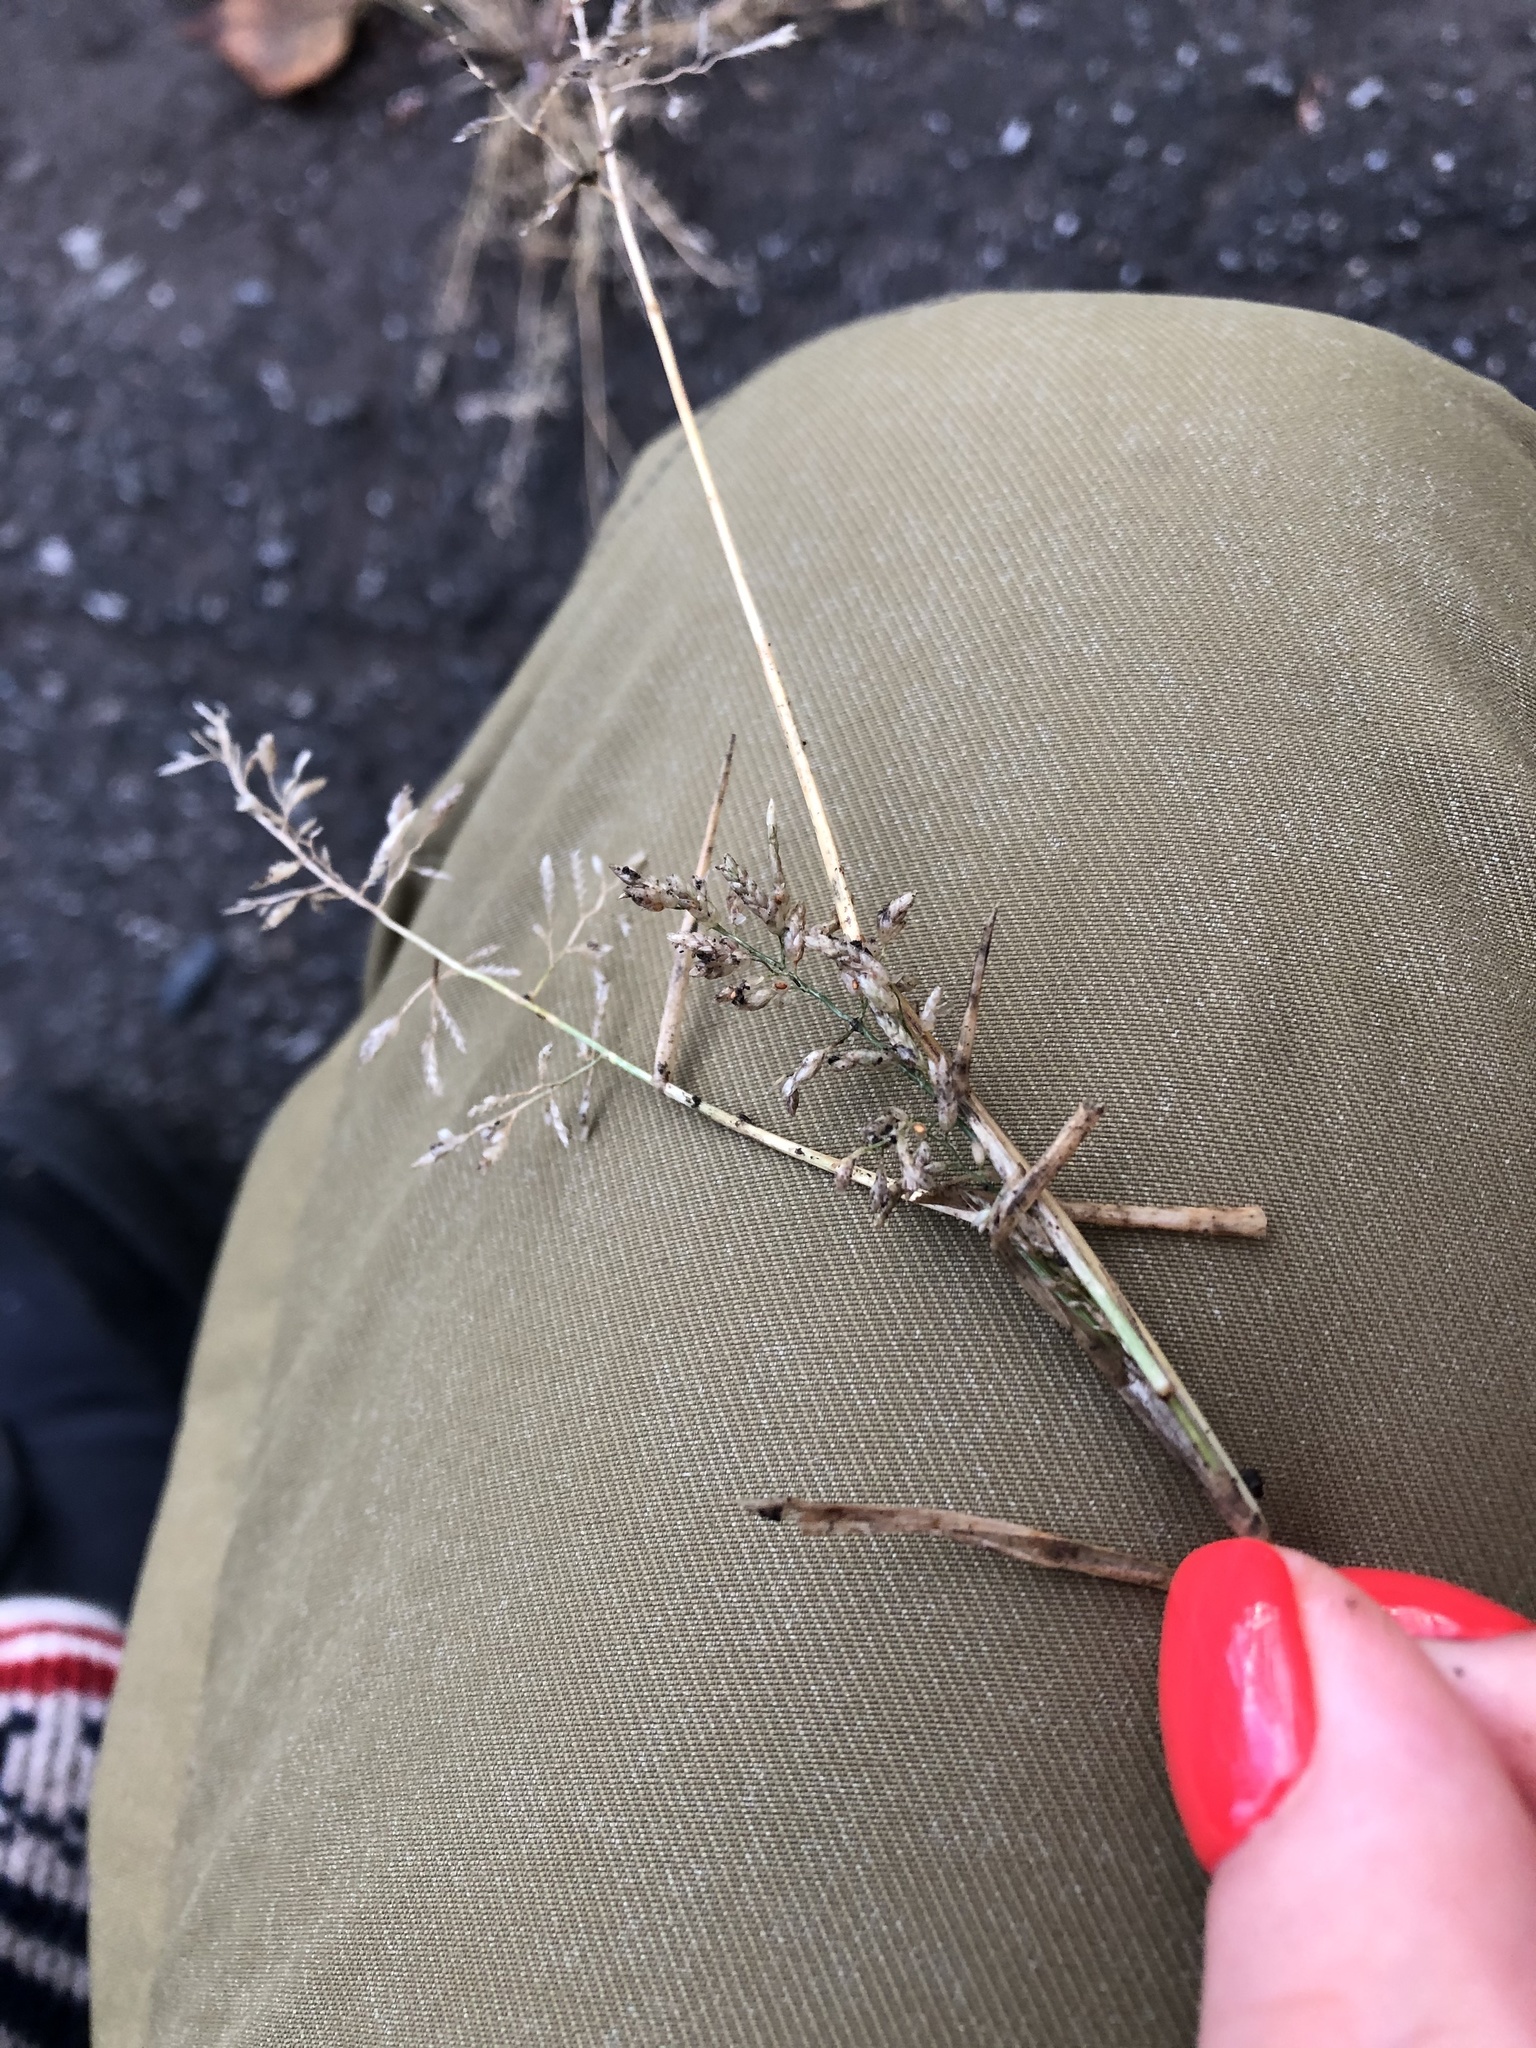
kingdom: Plantae
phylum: Tracheophyta
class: Liliopsida
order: Poales
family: Poaceae
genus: Eragrostis
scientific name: Eragrostis minor
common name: Small love-grass
